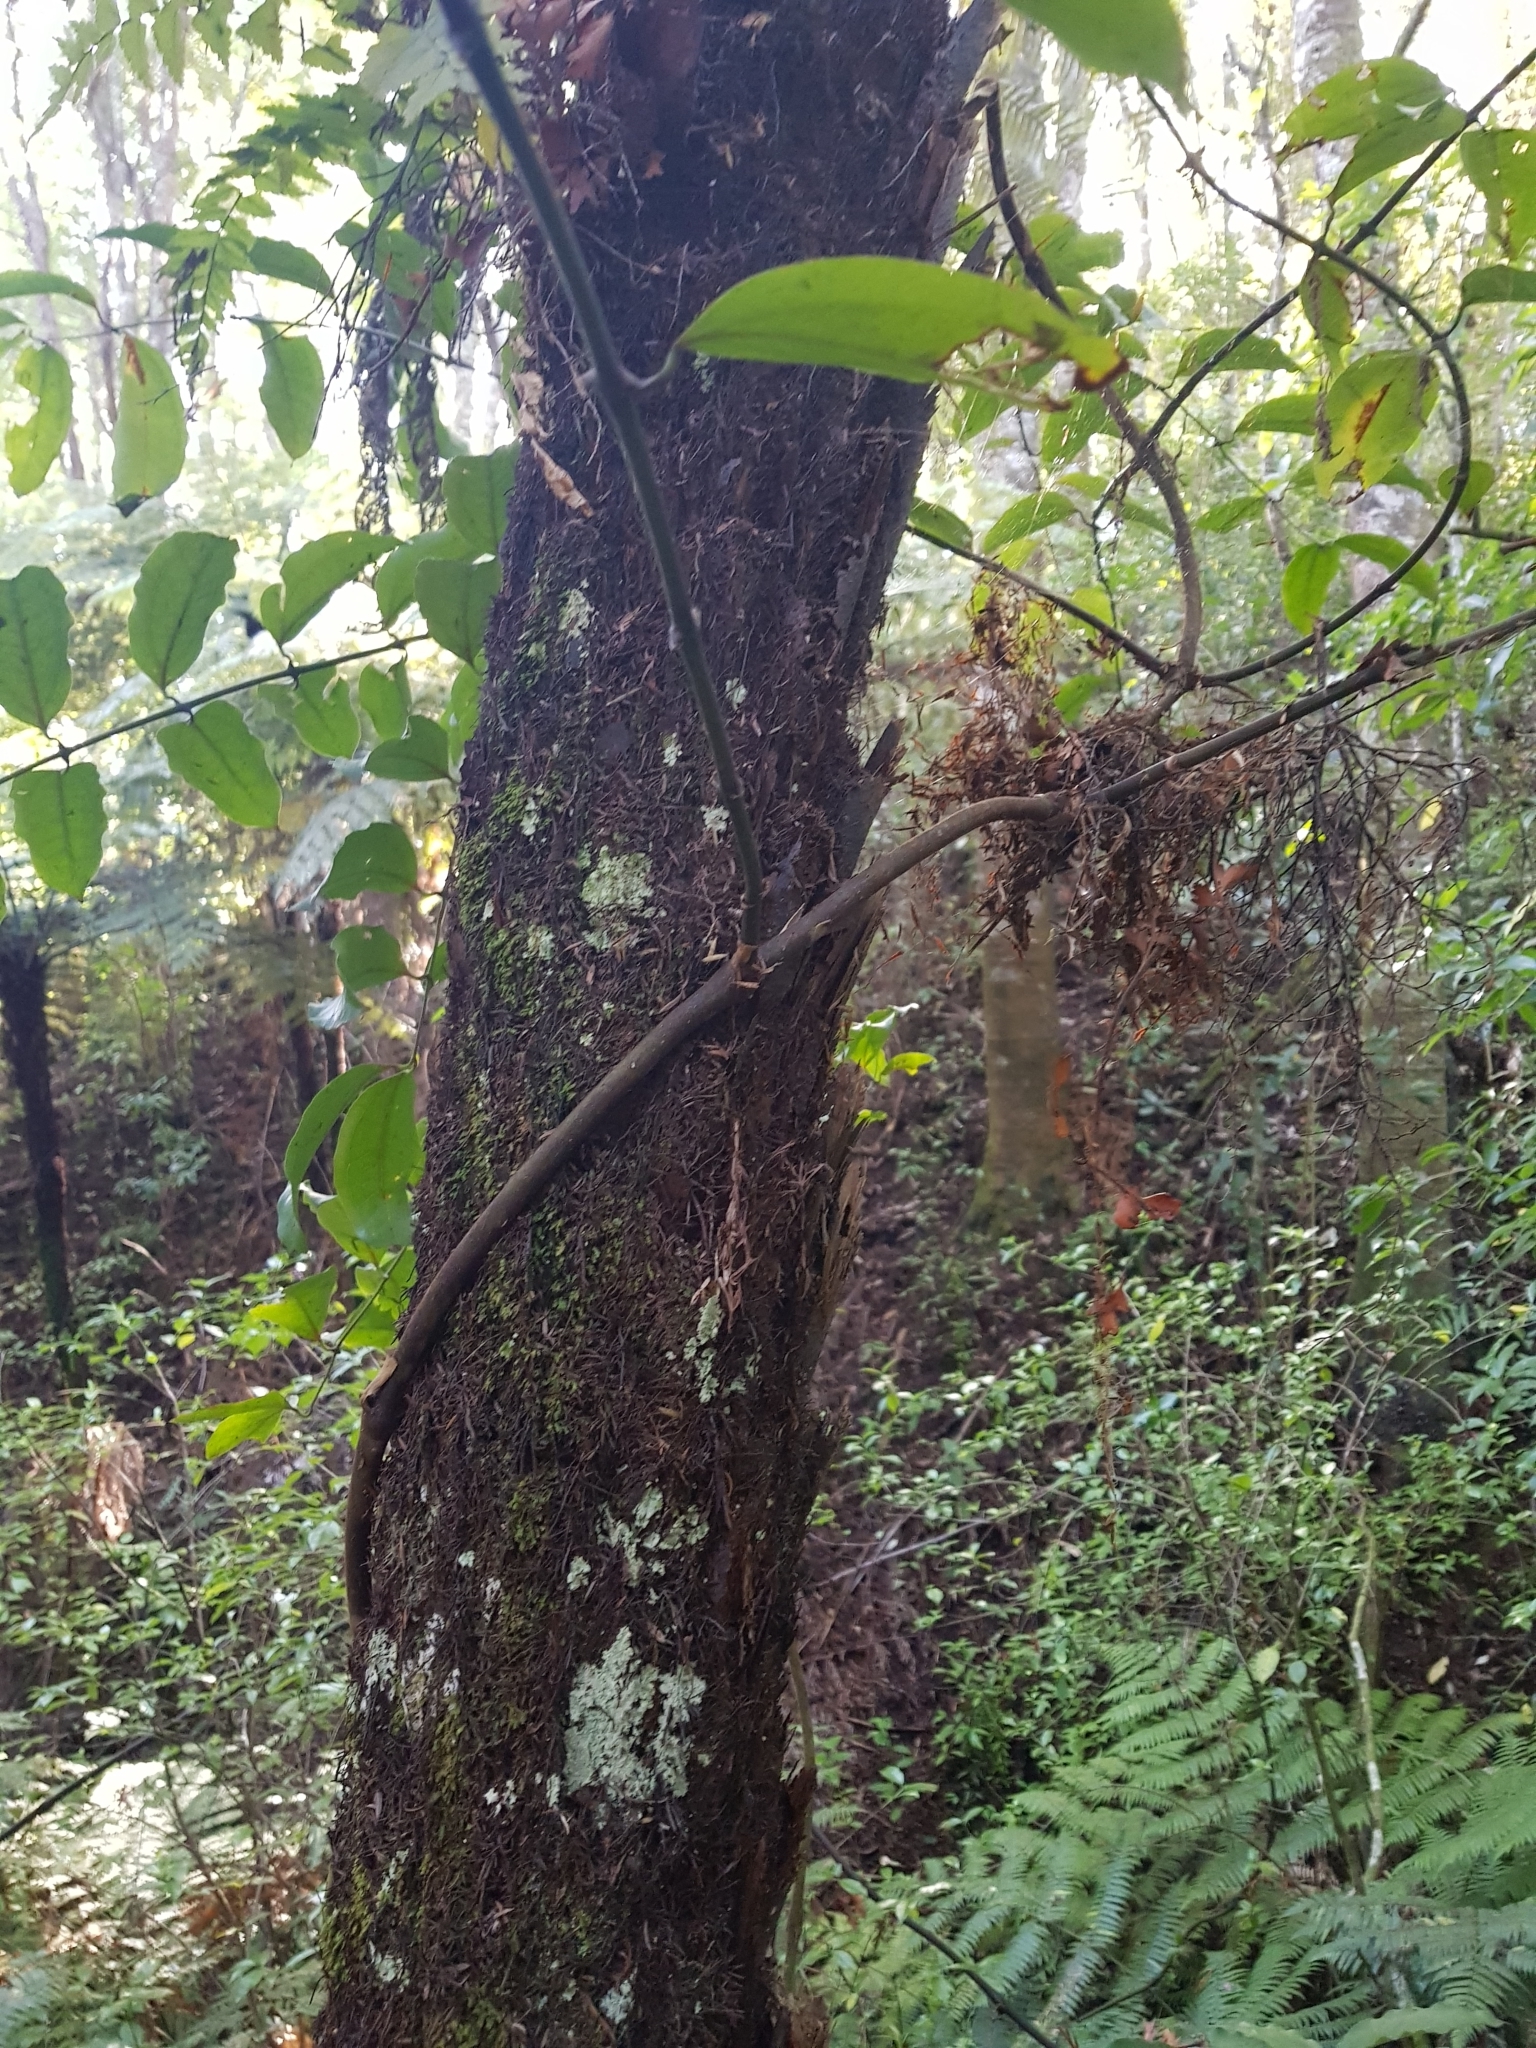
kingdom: Plantae
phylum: Tracheophyta
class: Liliopsida
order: Liliales
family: Ripogonaceae
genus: Ripogonum
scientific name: Ripogonum scandens
